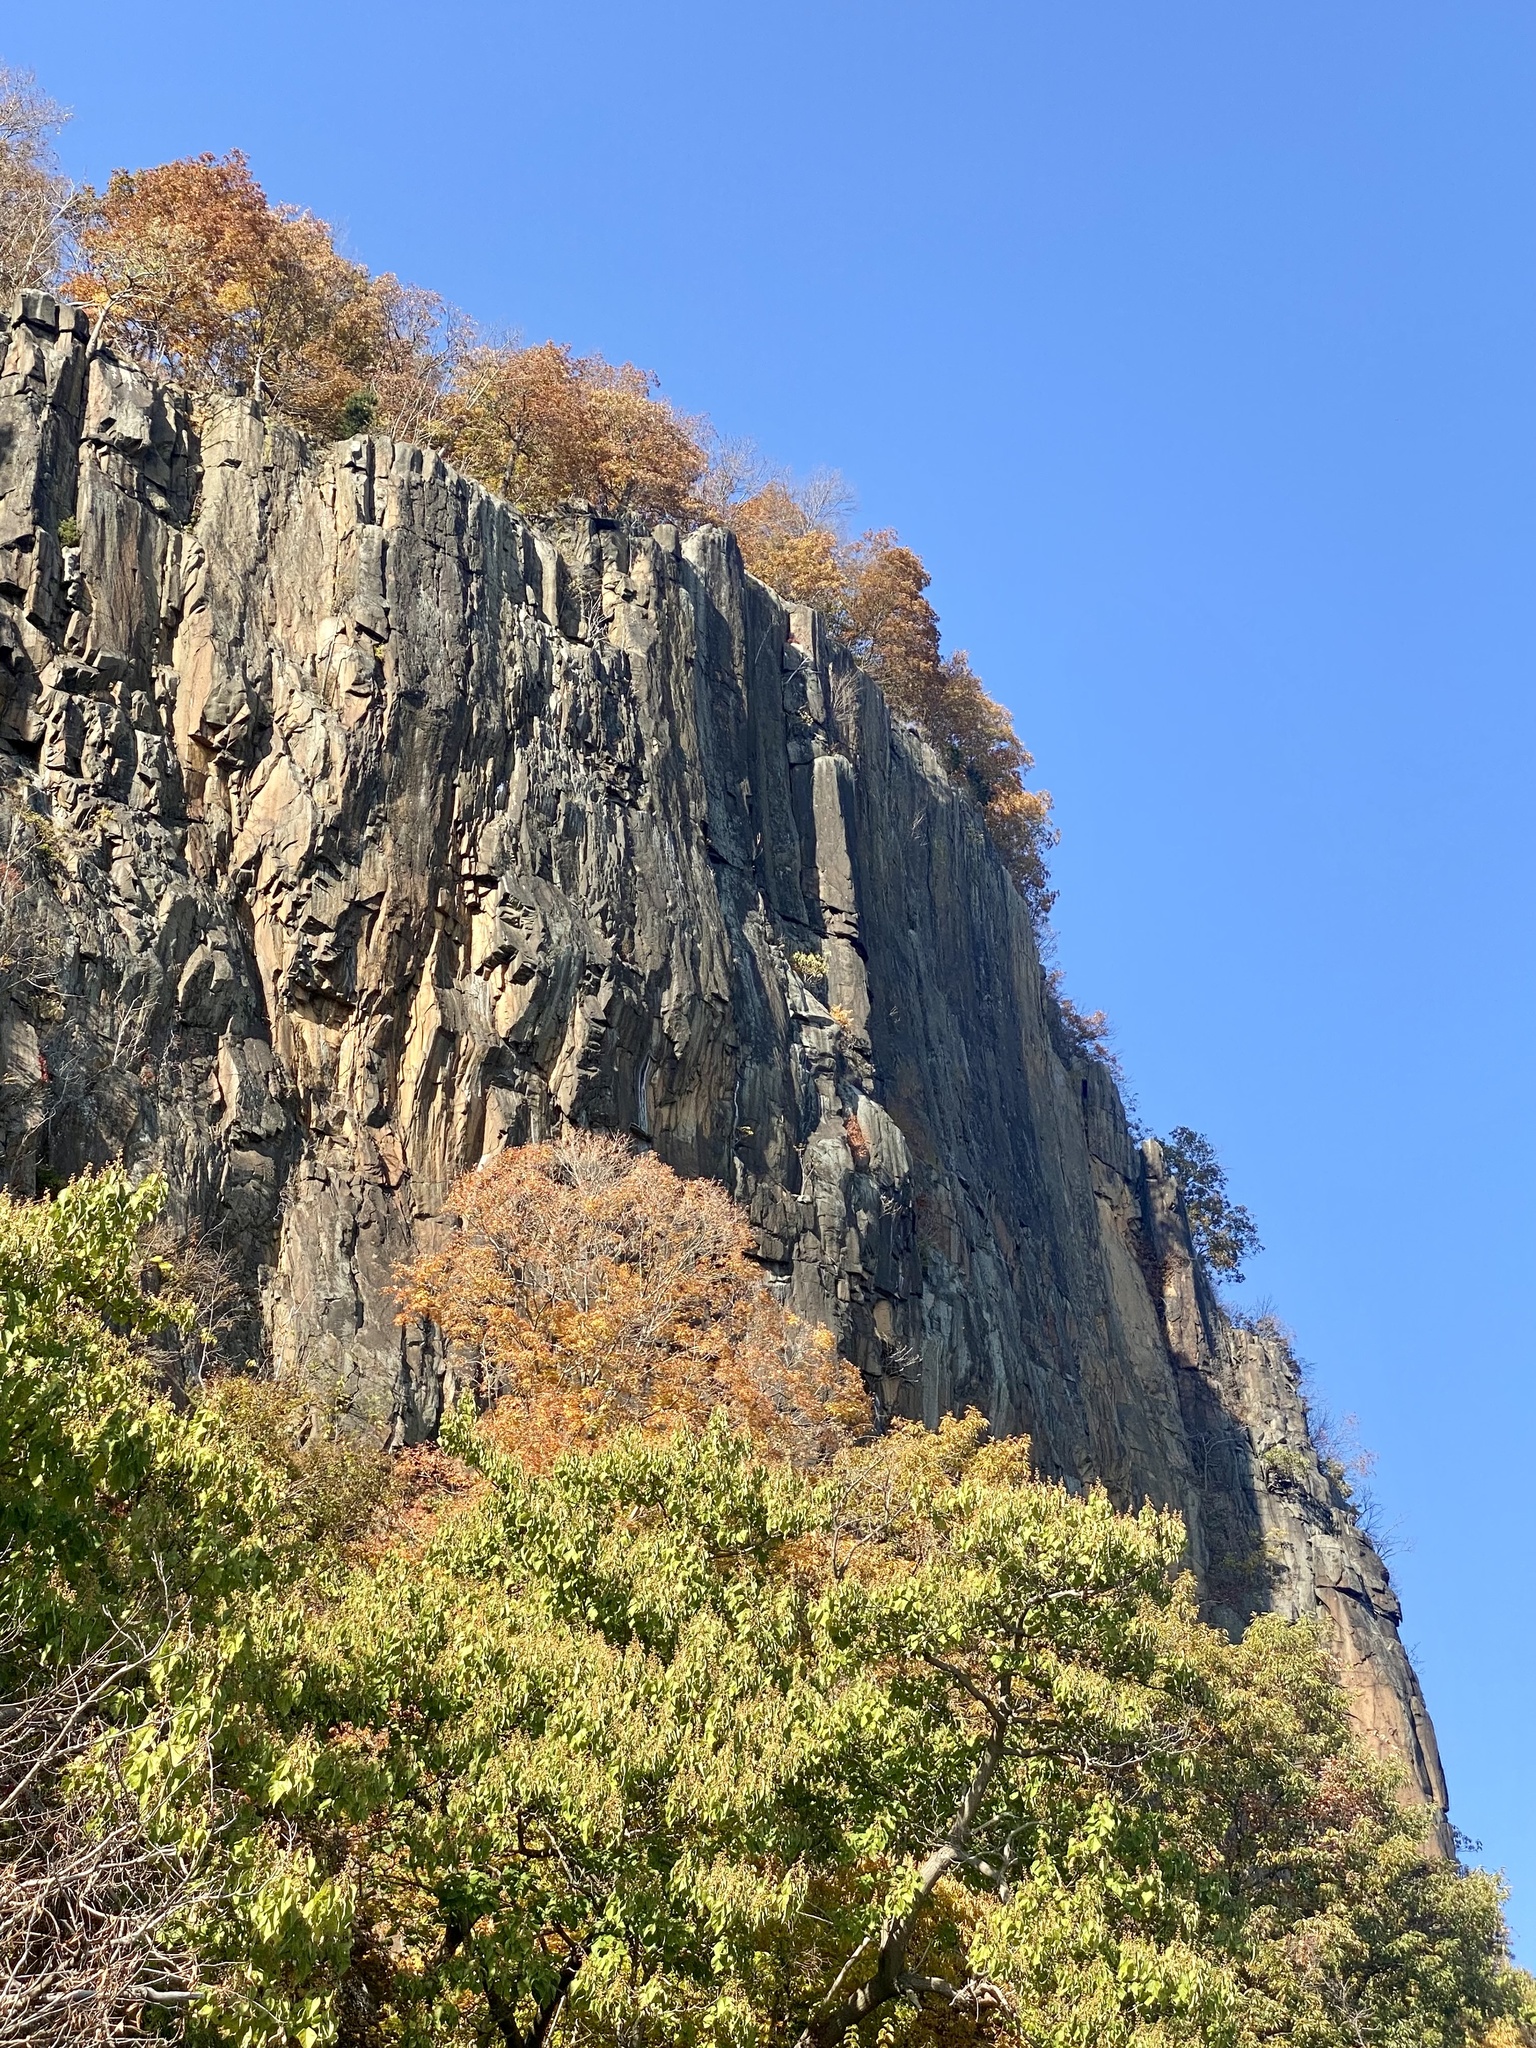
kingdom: Plantae
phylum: Tracheophyta
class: Magnoliopsida
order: Sapindales
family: Anacardiaceae
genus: Toxicodendron
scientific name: Toxicodendron radicans
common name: Poison ivy
